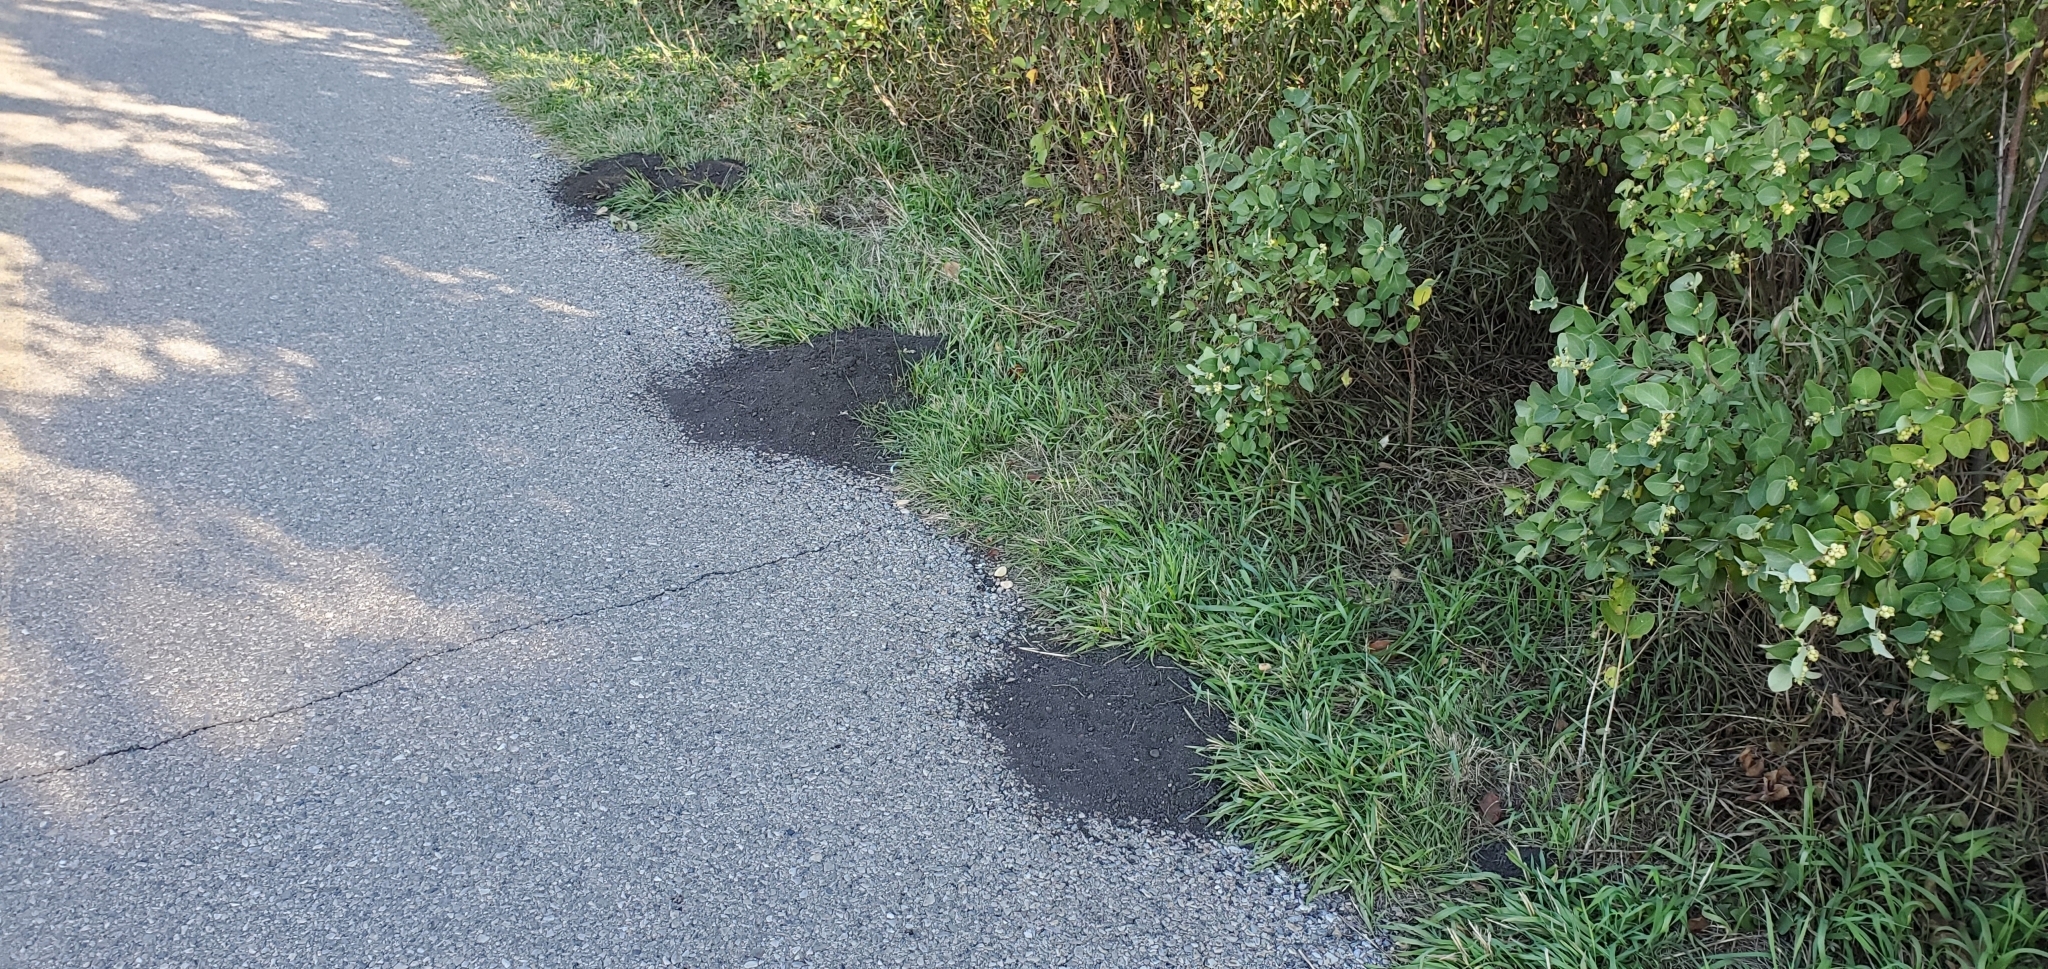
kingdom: Animalia
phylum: Chordata
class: Mammalia
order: Rodentia
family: Geomyidae
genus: Thomomys
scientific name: Thomomys talpoides
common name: Northern pocket gopher
